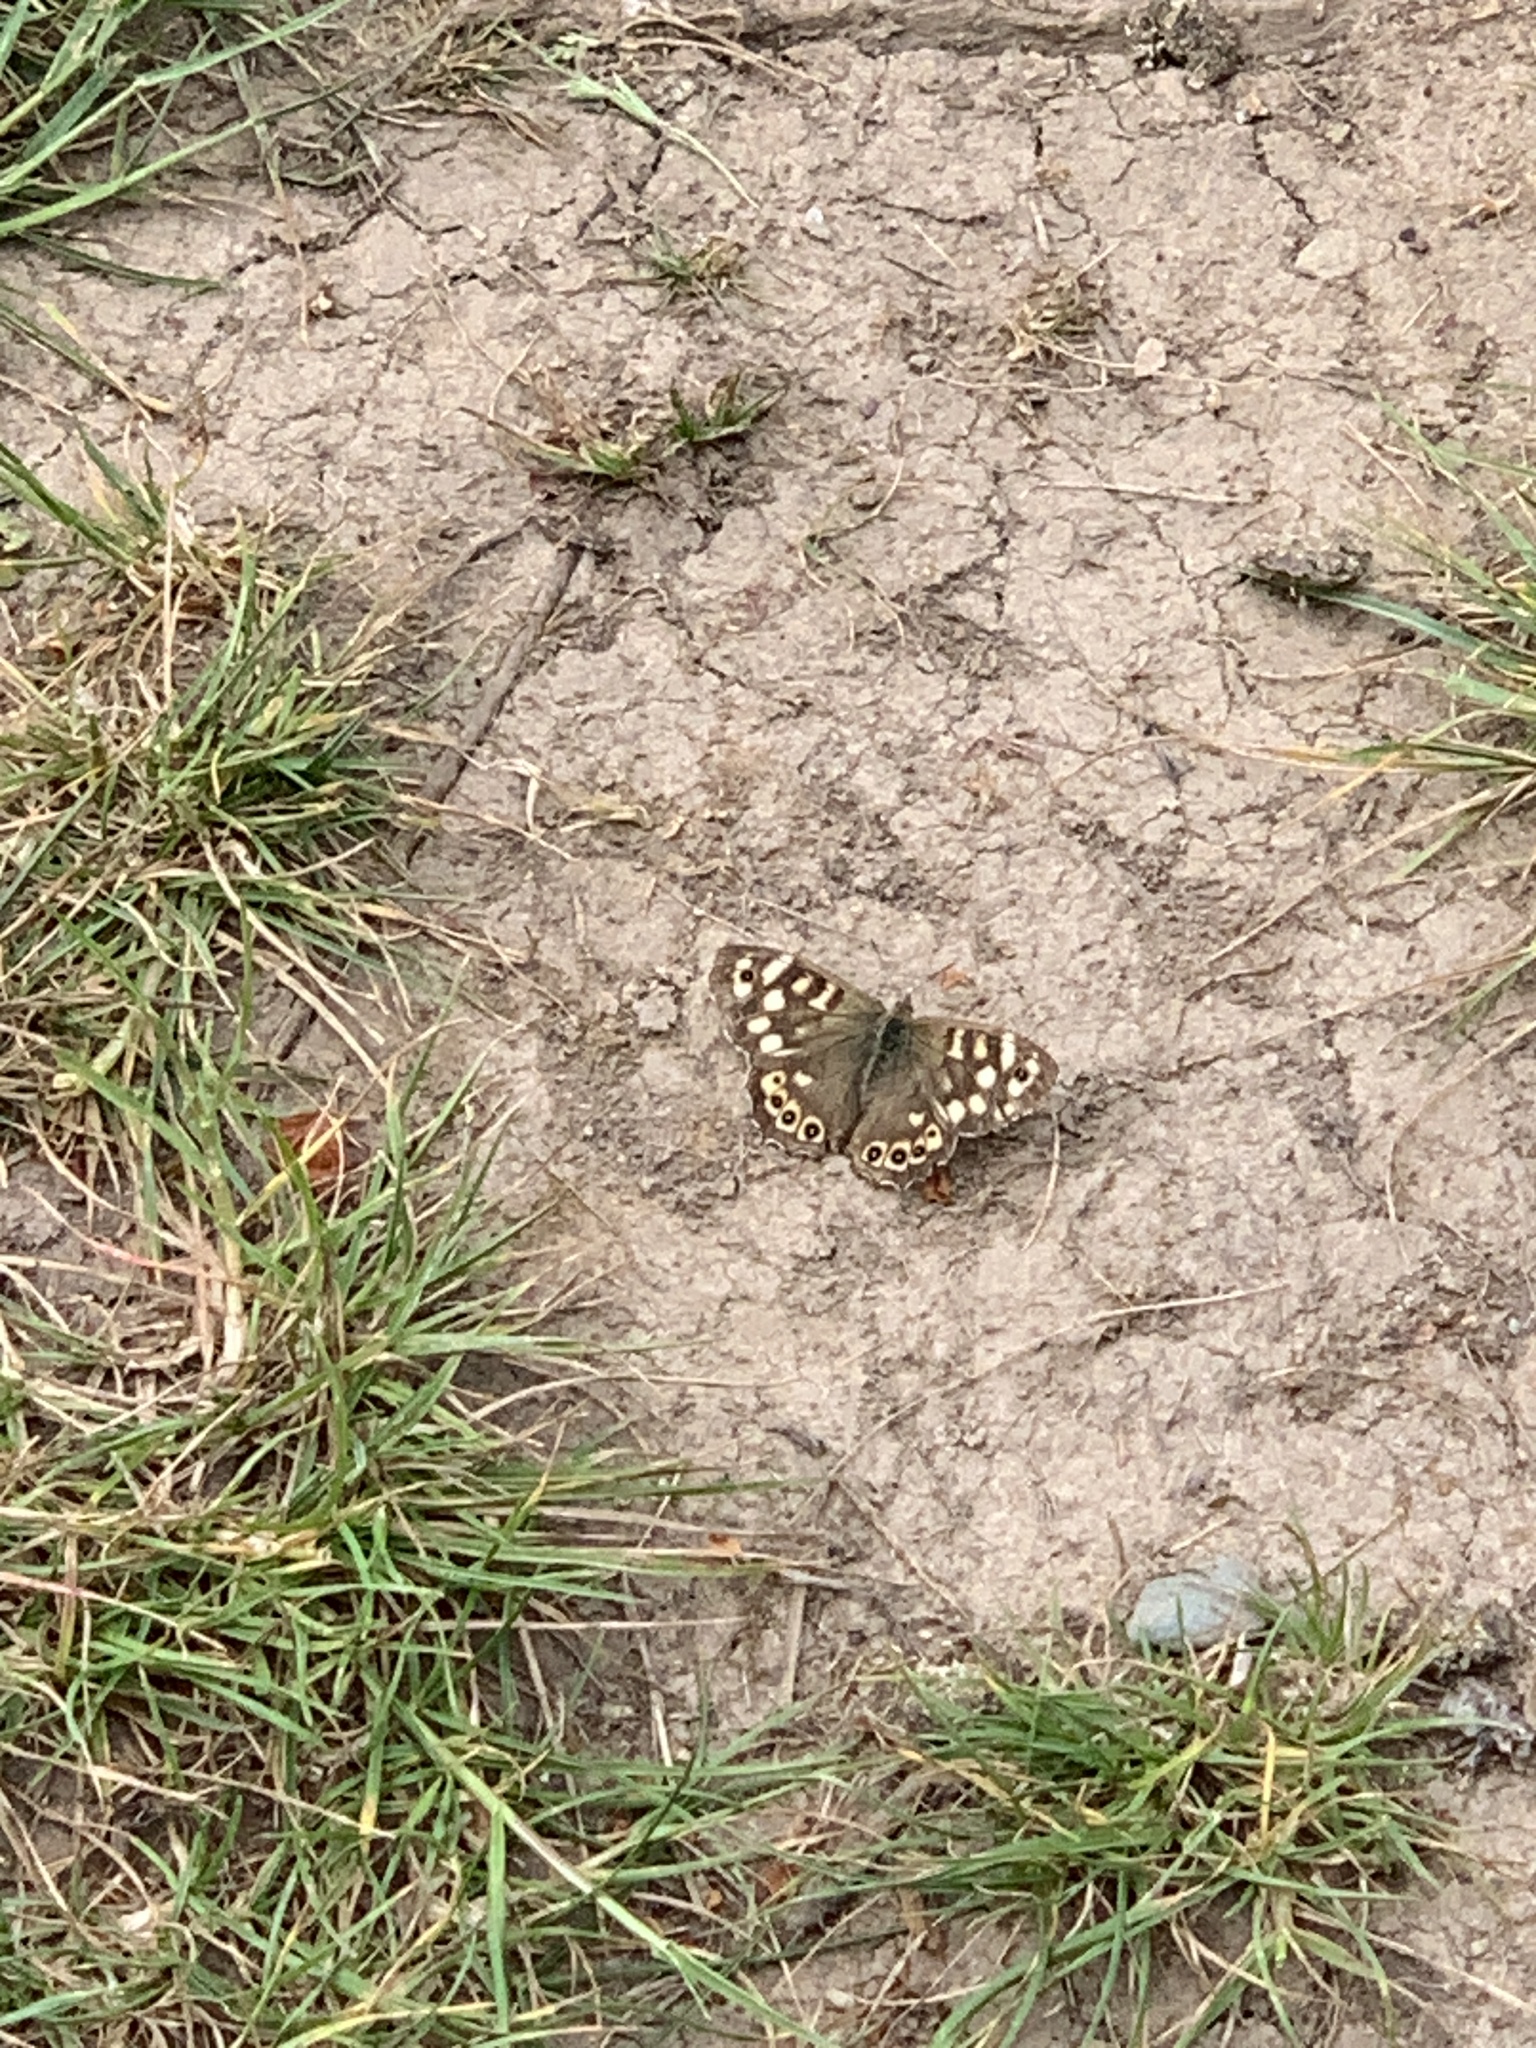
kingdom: Animalia
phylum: Arthropoda
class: Insecta
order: Lepidoptera
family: Nymphalidae
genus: Pararge
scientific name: Pararge aegeria
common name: Speckled wood
